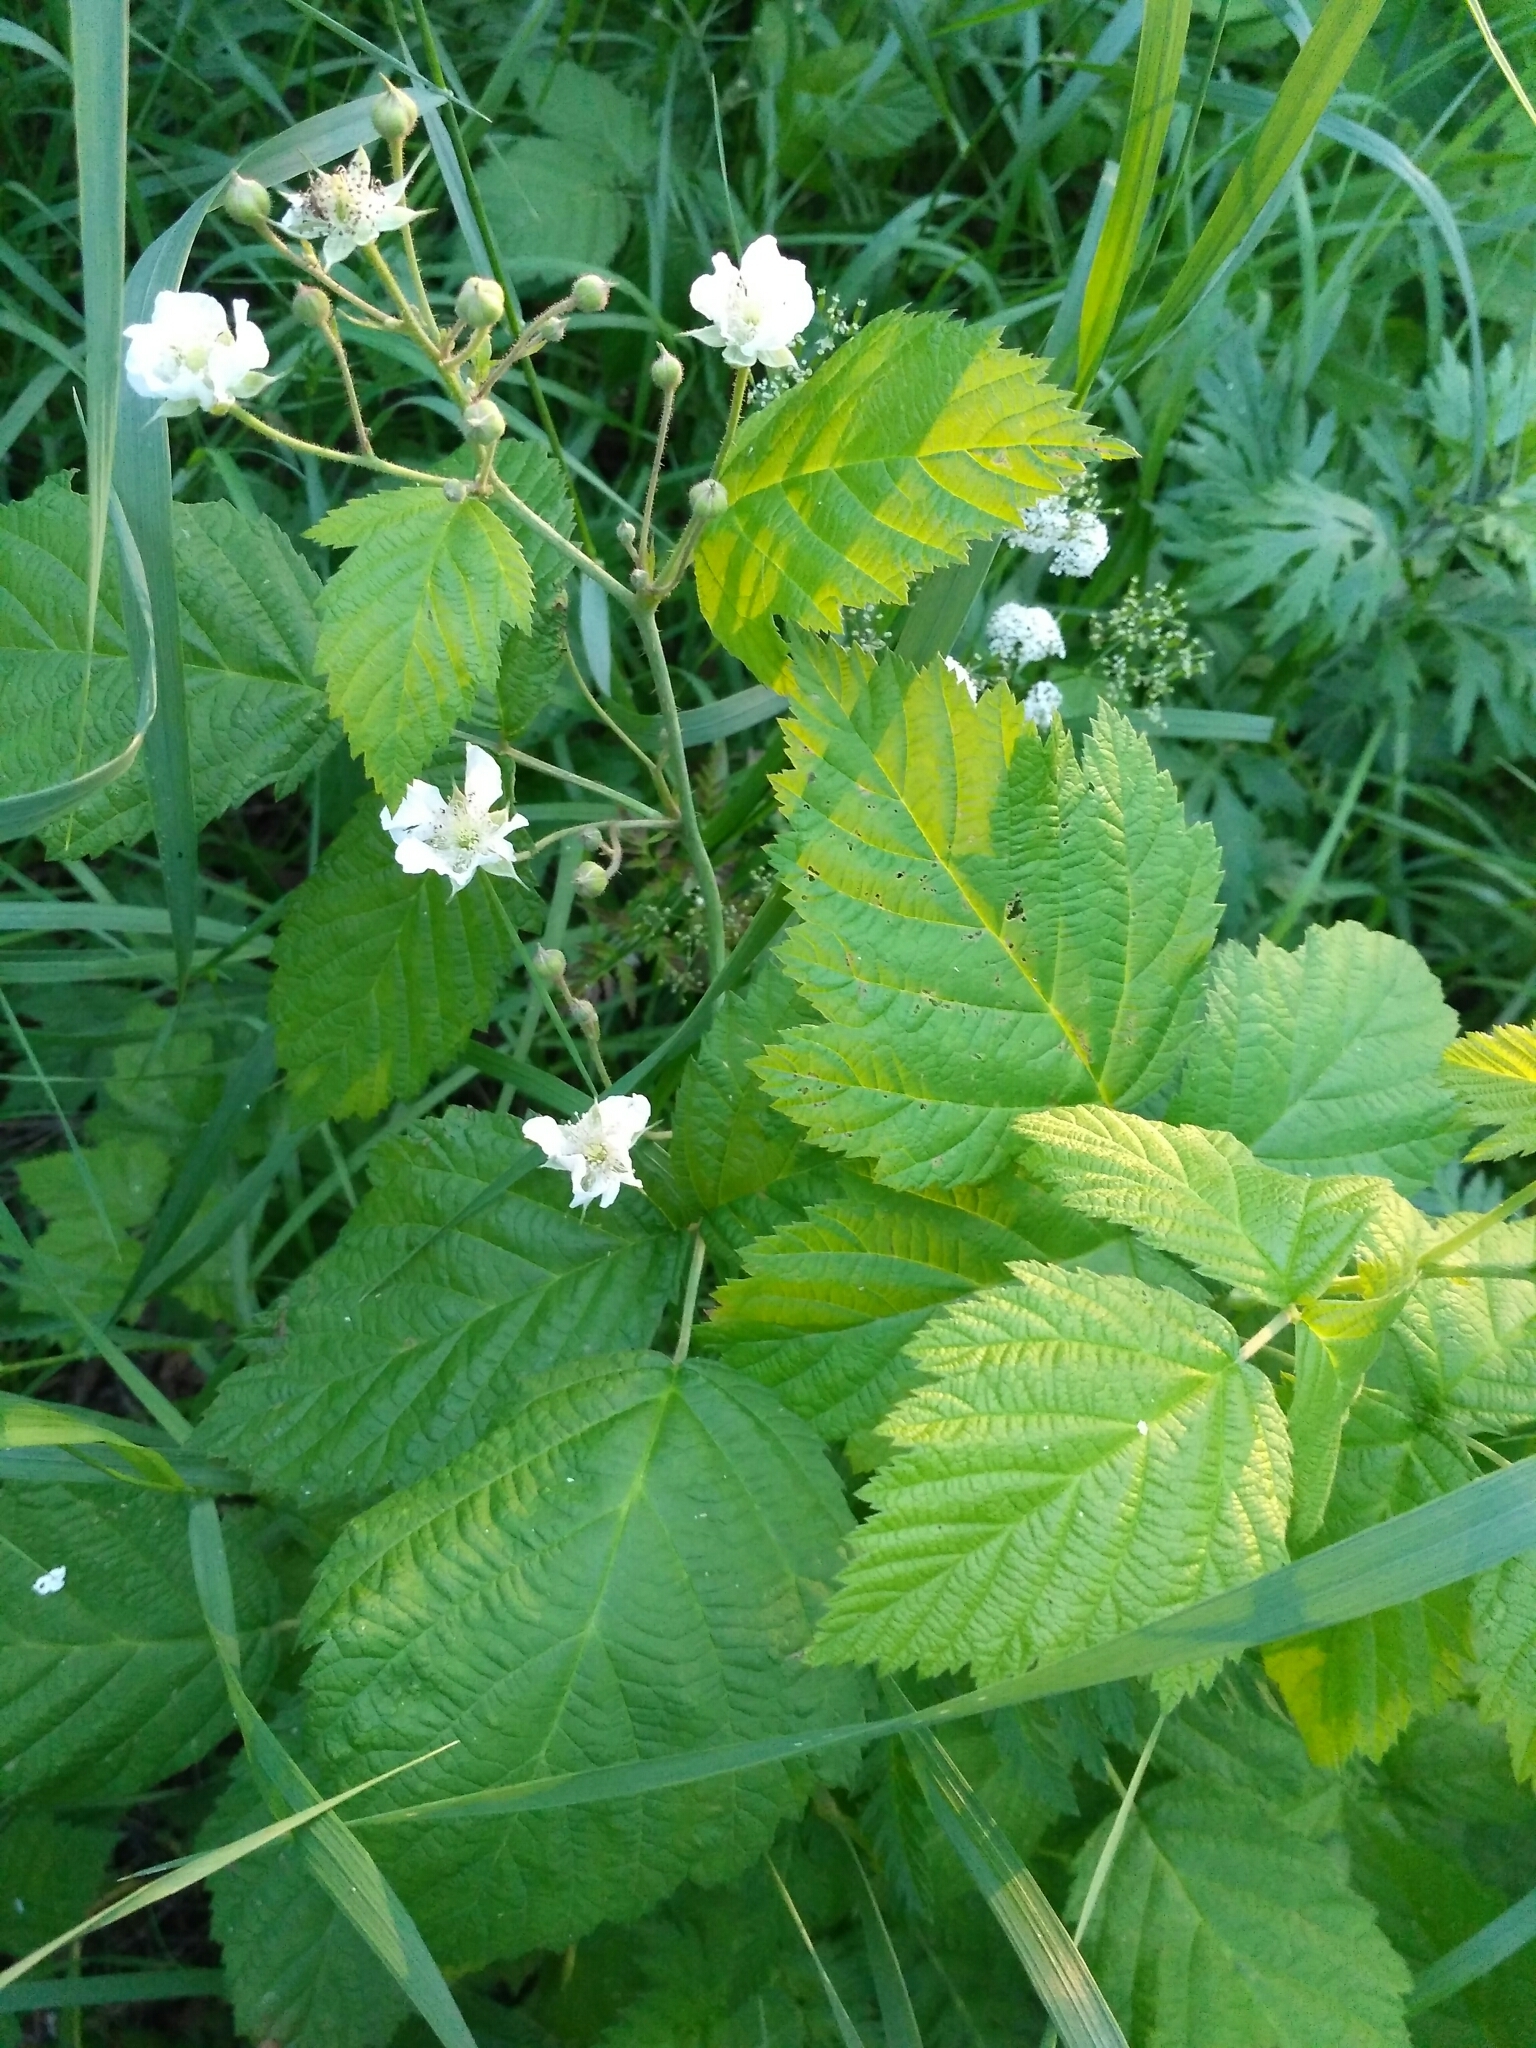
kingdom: Plantae
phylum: Tracheophyta
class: Magnoliopsida
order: Rosales
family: Rosaceae
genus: Rubus
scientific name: Rubus caesius
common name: Dewberry
